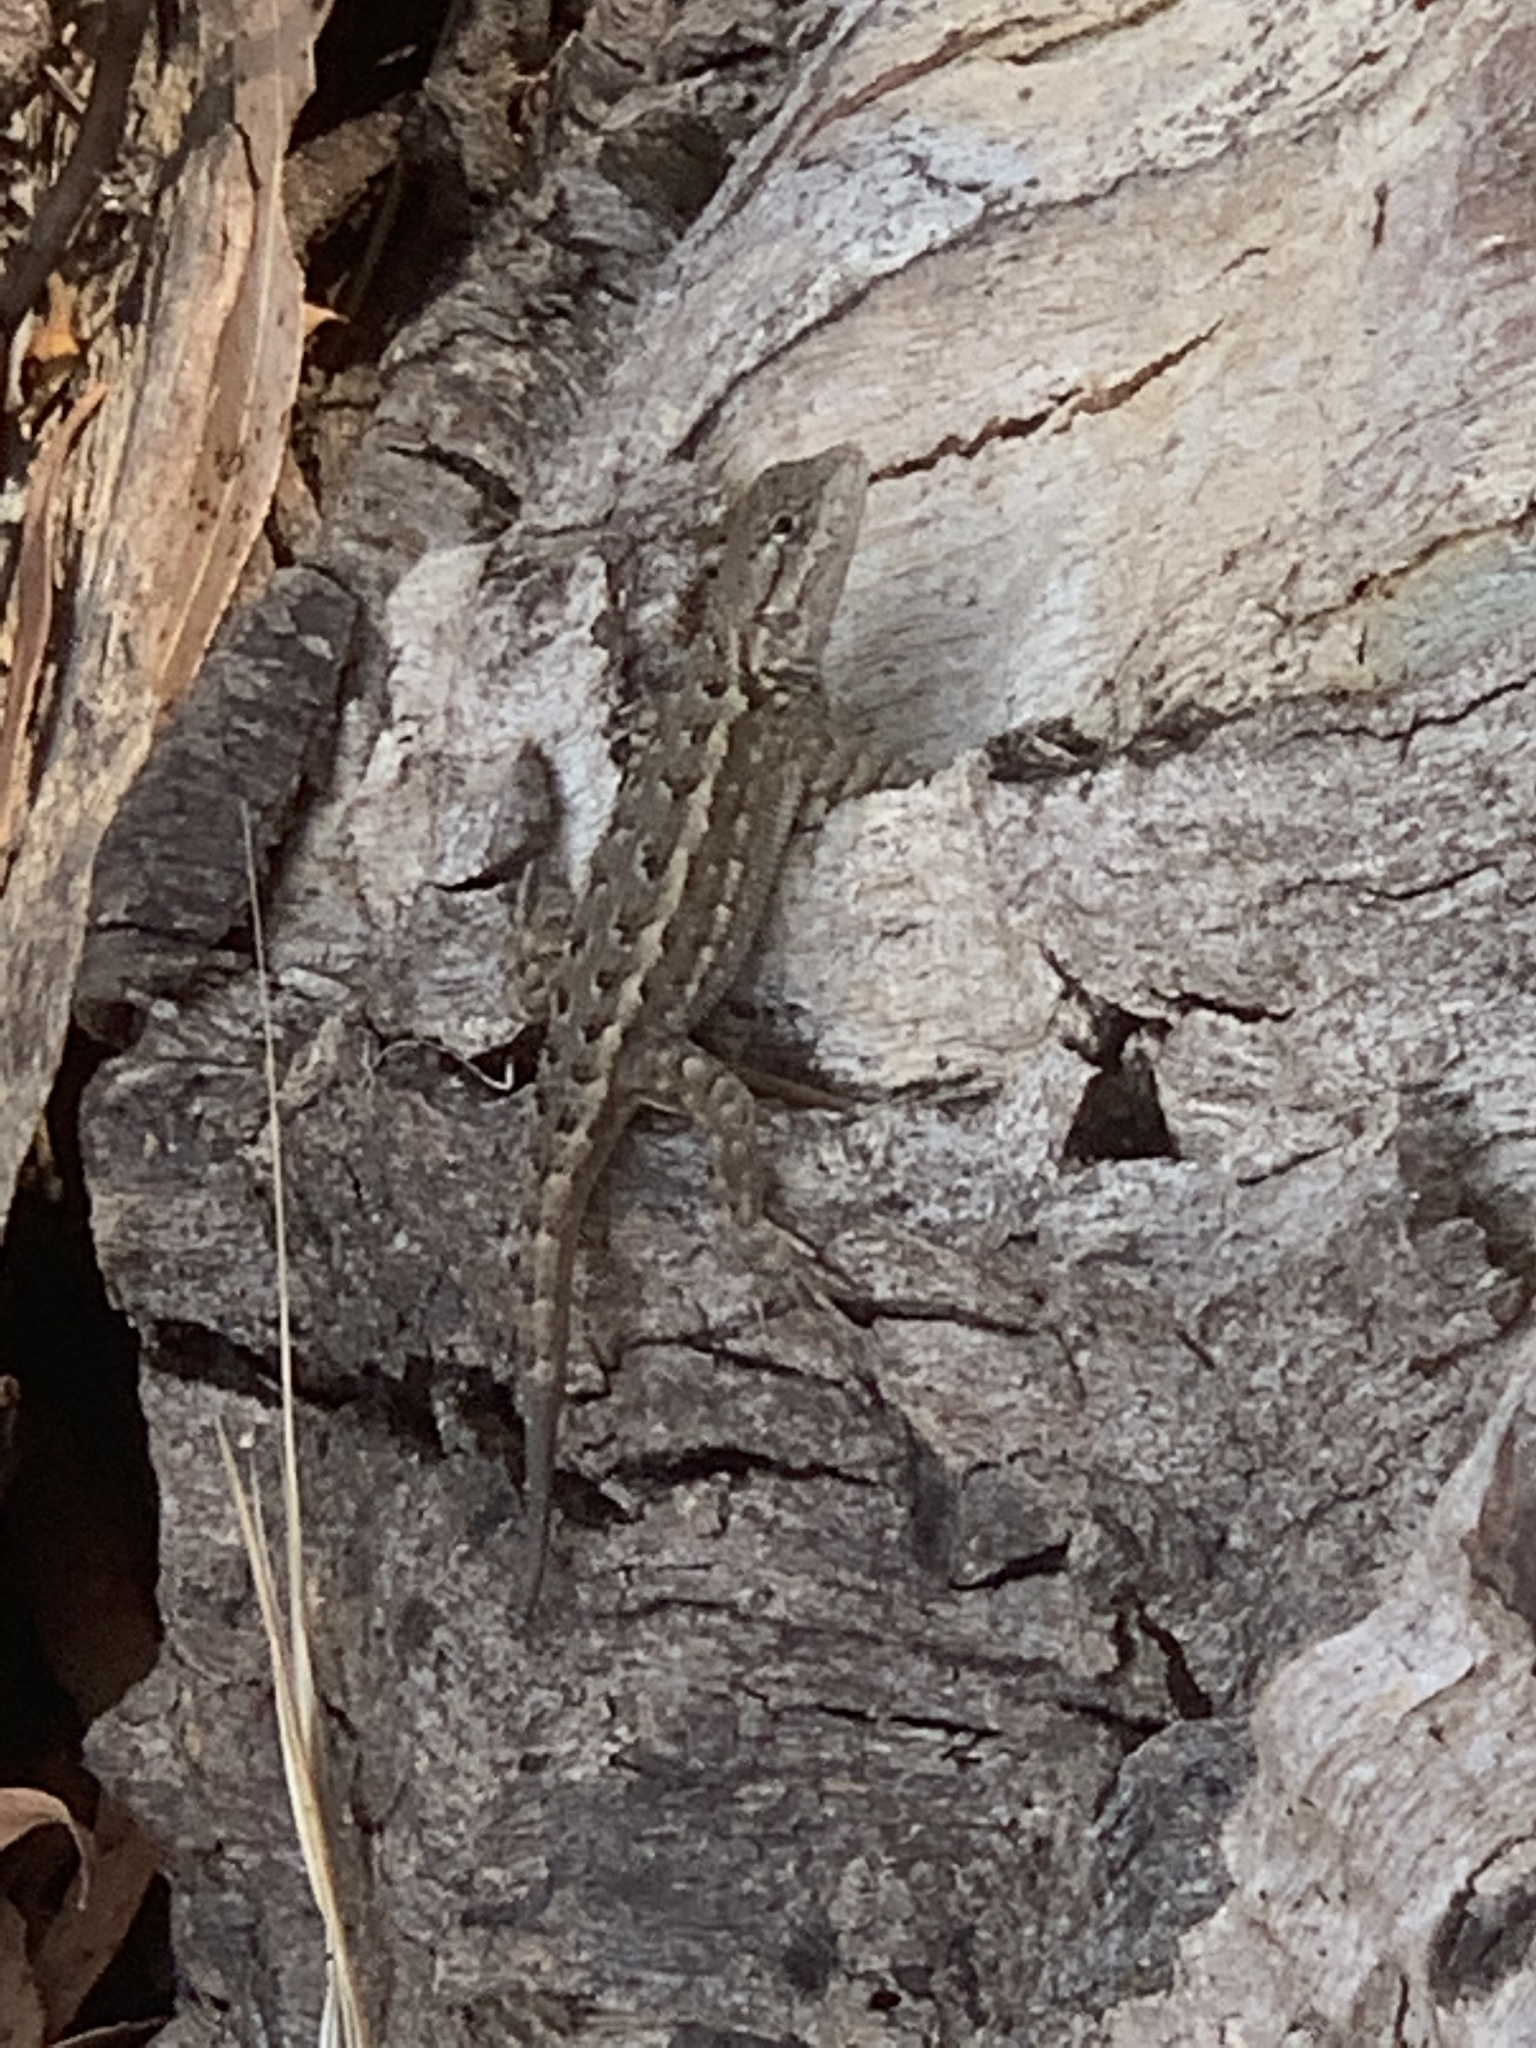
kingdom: Animalia
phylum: Chordata
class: Squamata
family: Phrynosomatidae
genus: Sceloporus
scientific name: Sceloporus occidentalis
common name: Western fence lizard
